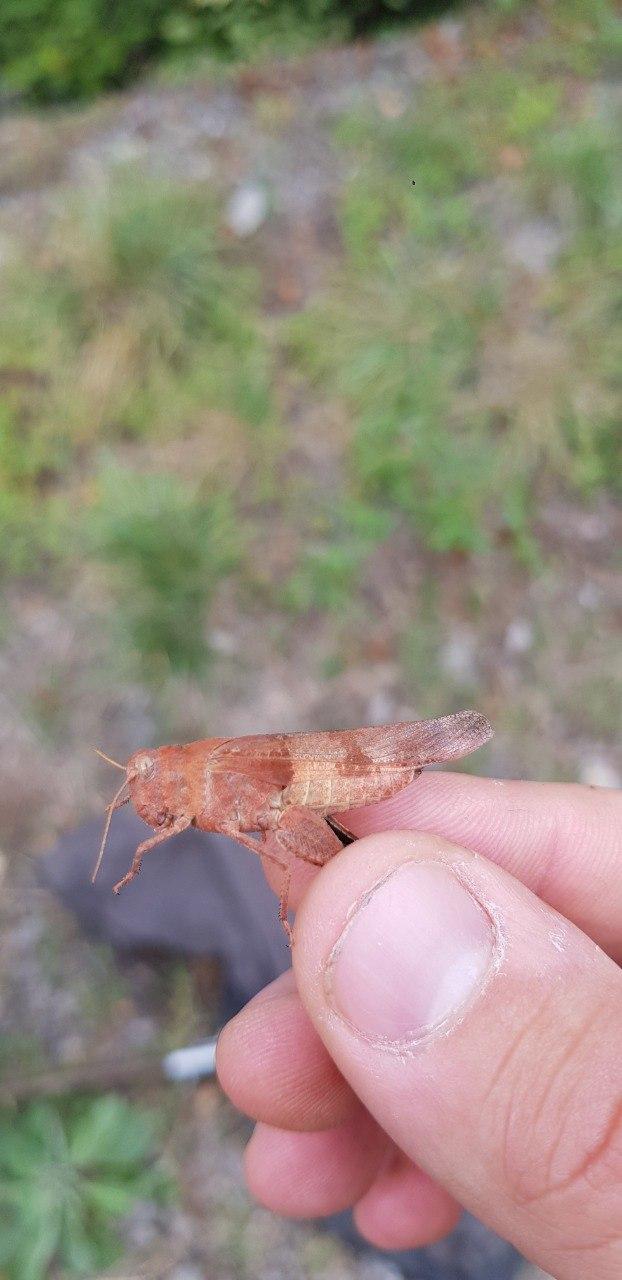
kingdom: Animalia
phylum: Arthropoda
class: Insecta
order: Orthoptera
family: Acrididae
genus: Oedipoda
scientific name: Oedipoda caerulescens
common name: Blue-winged grasshopper
